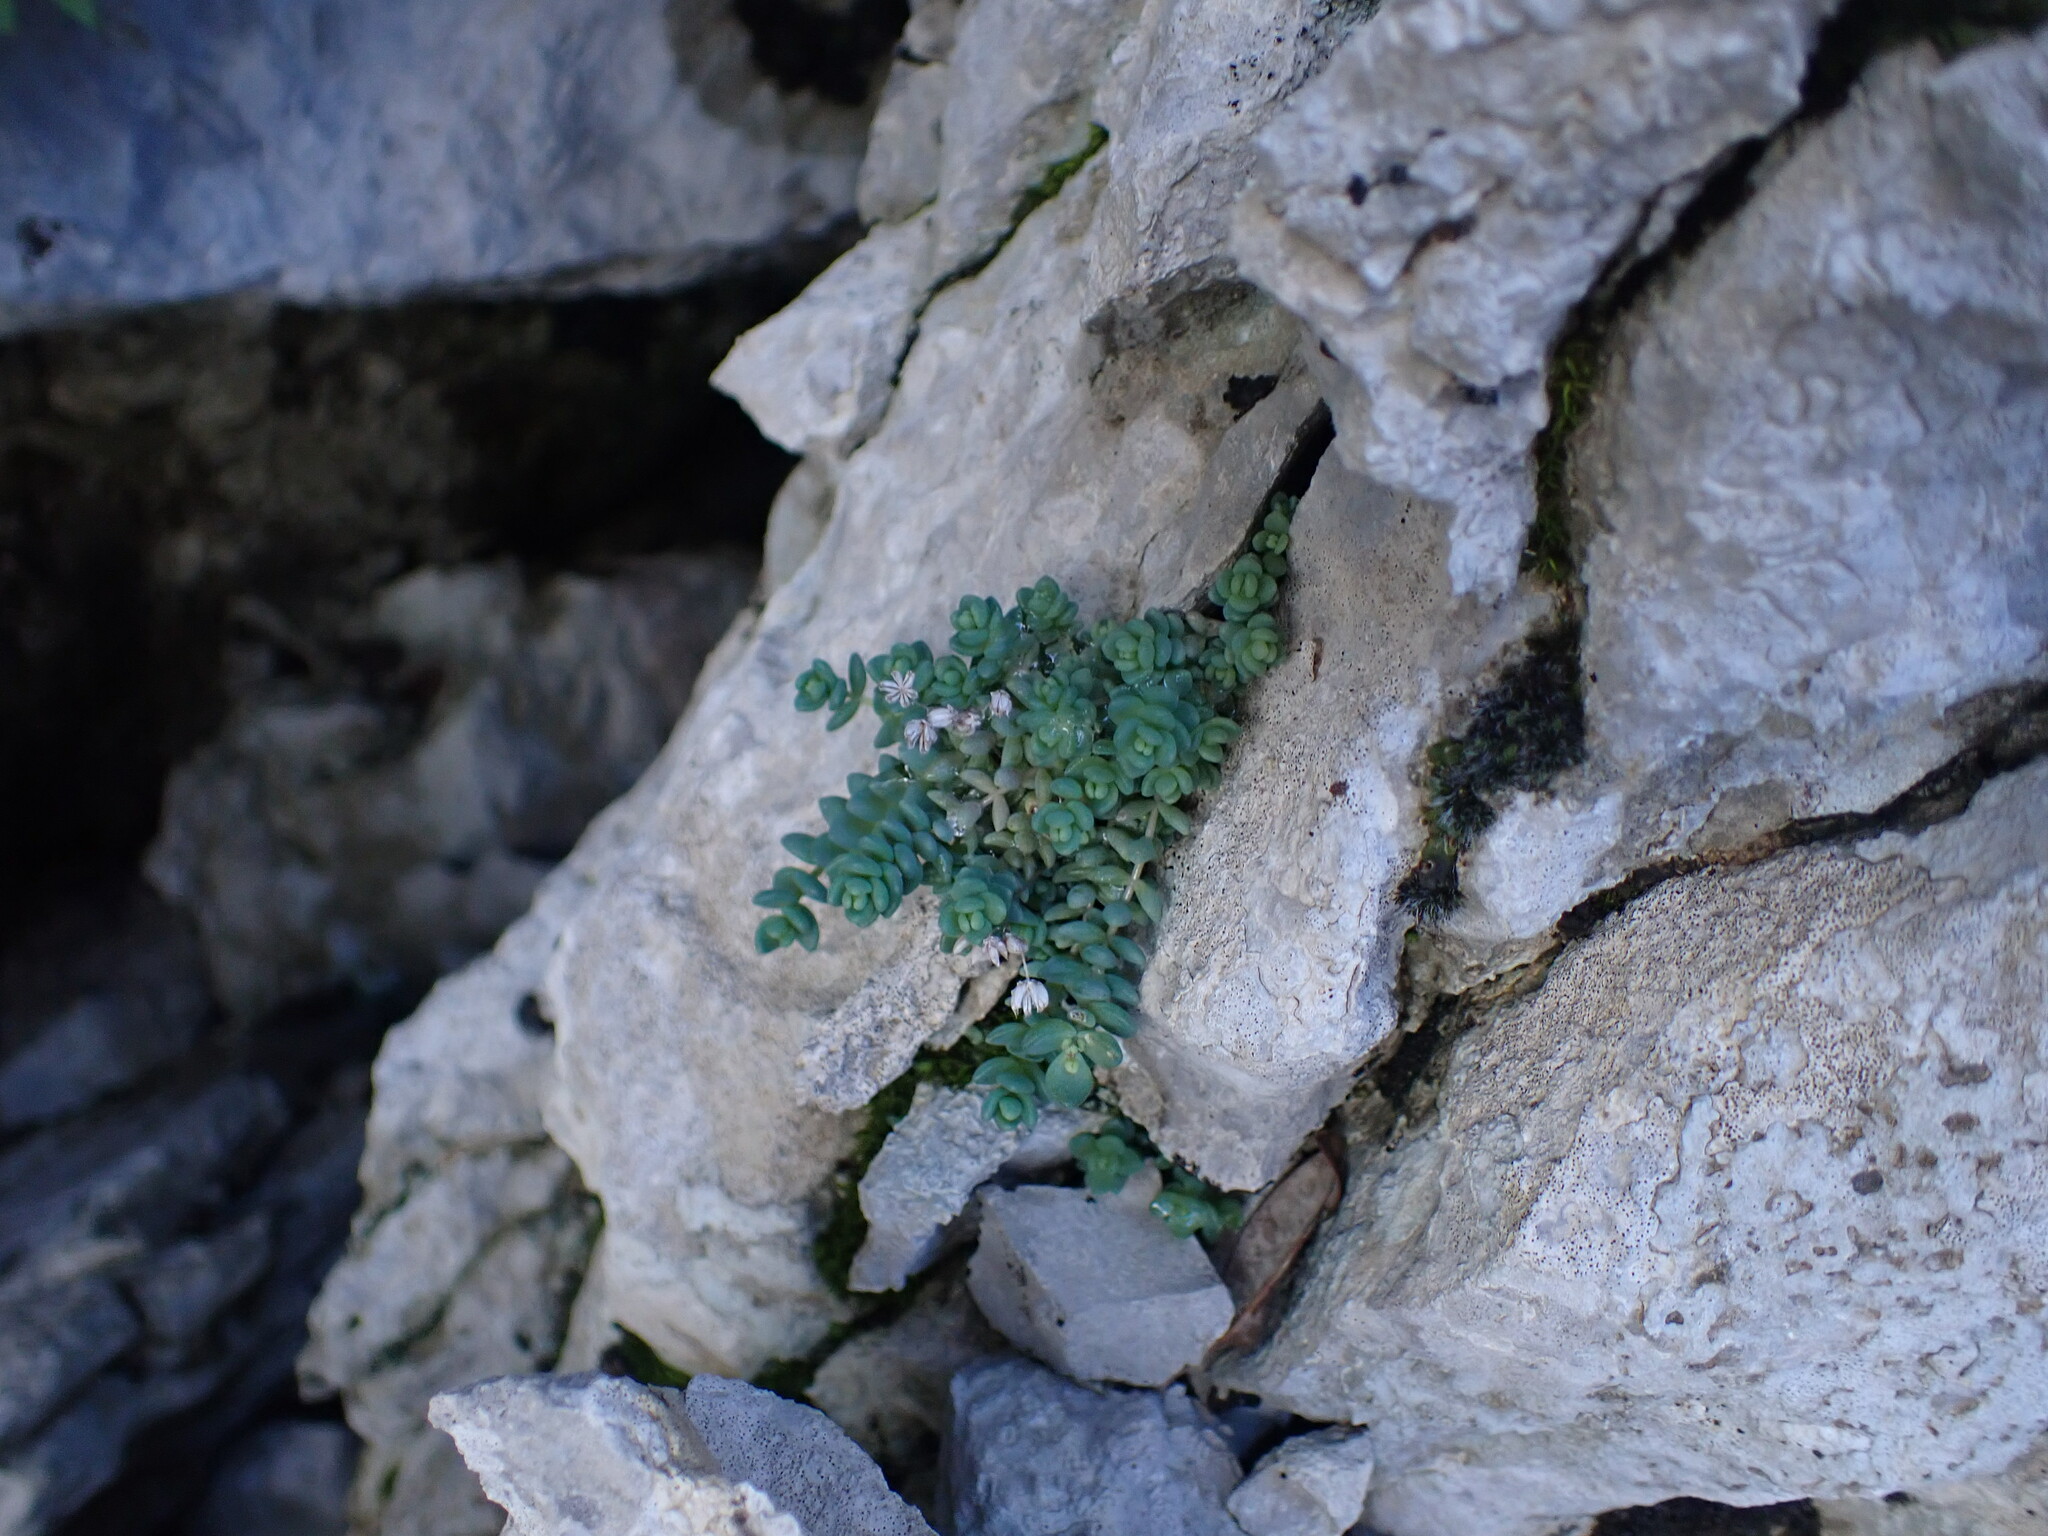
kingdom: Plantae
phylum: Tracheophyta
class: Magnoliopsida
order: Saxifragales
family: Crassulaceae
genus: Sedum
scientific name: Sedum dasyphyllum
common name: Thick-leaf stonecrop
